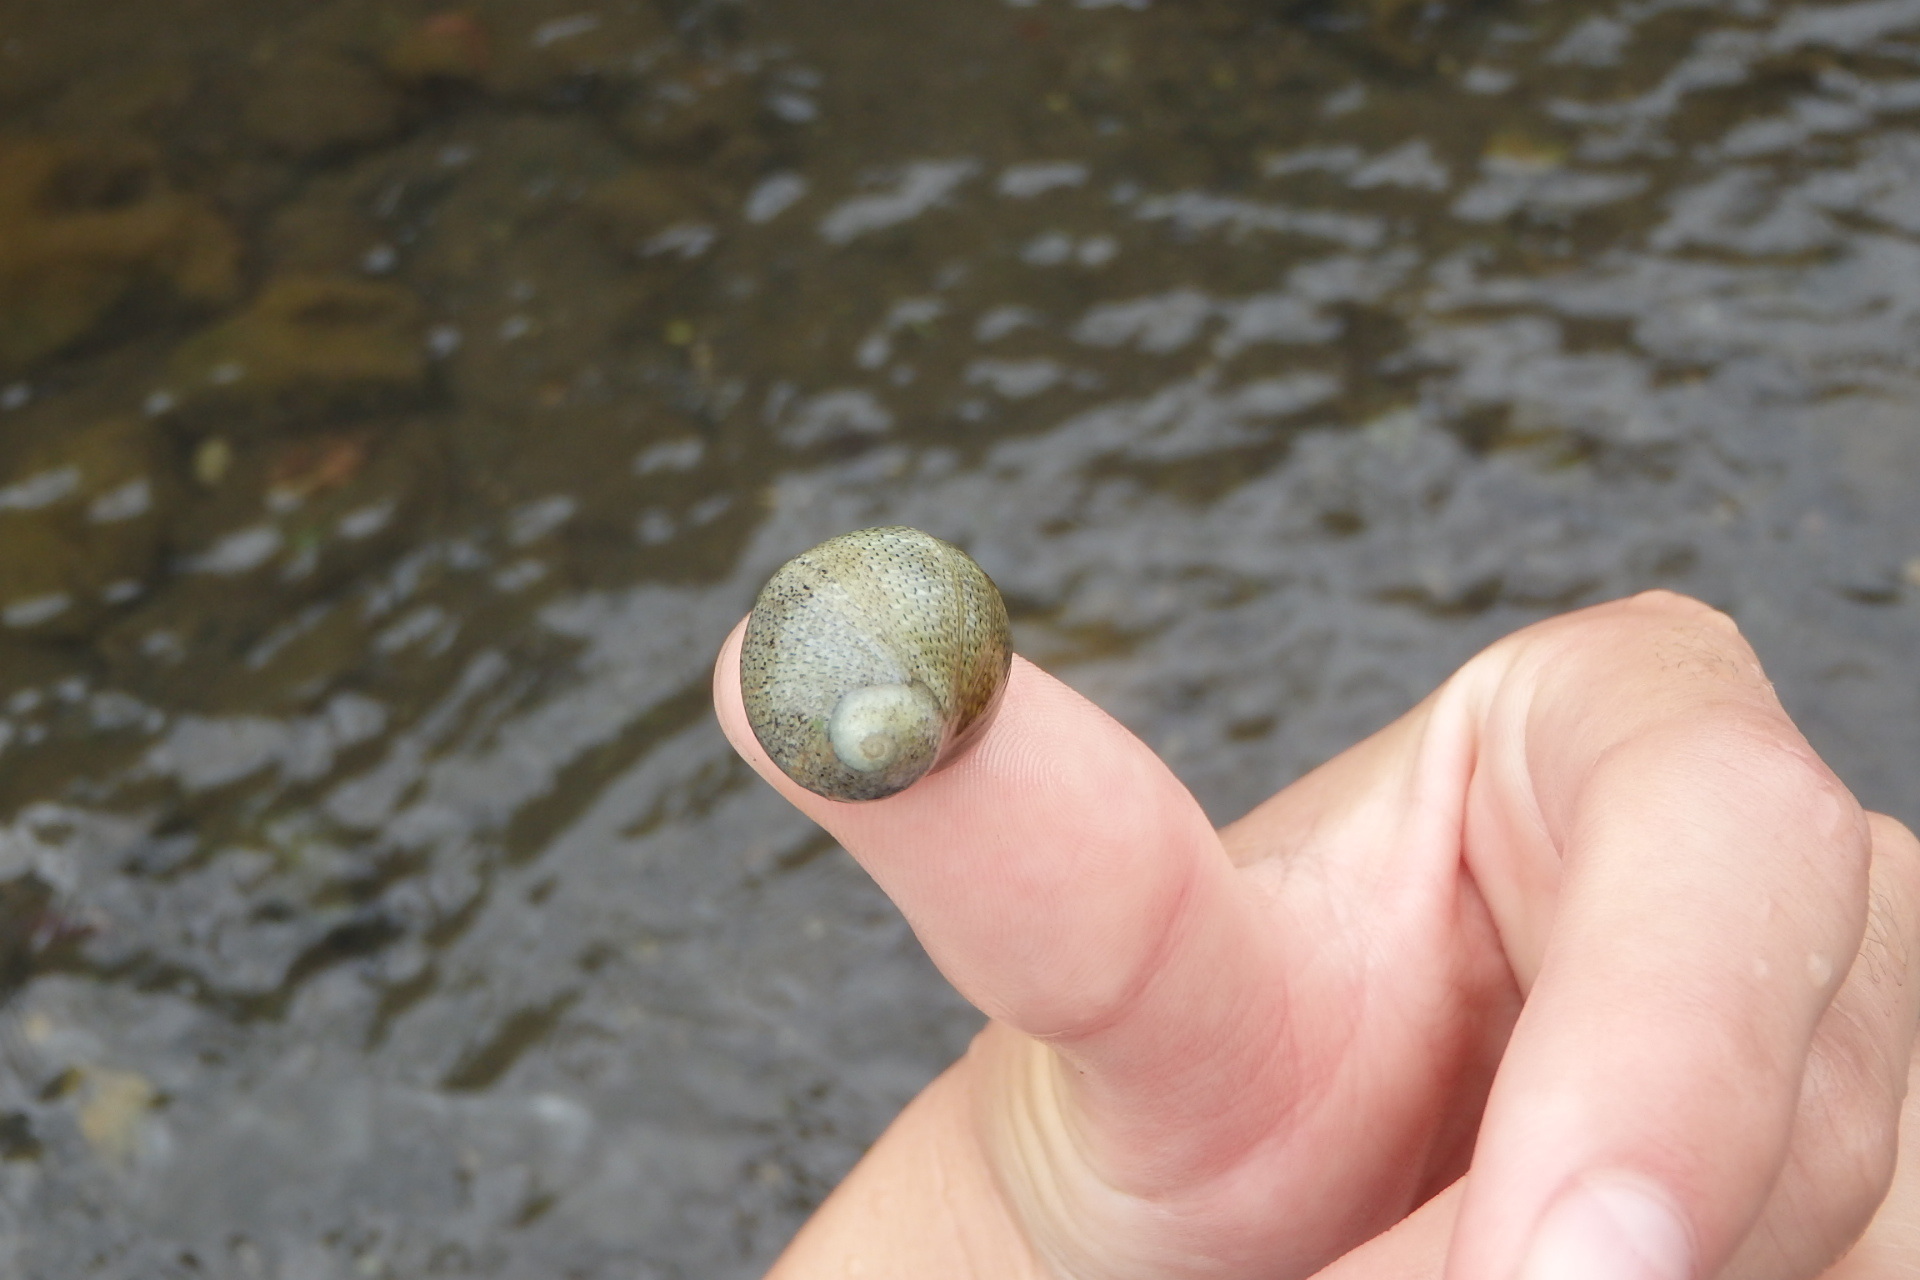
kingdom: Animalia
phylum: Mollusca
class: Gastropoda
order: Cycloneritida
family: Neritidae
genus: Clithon
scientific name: Clithon retropictum
